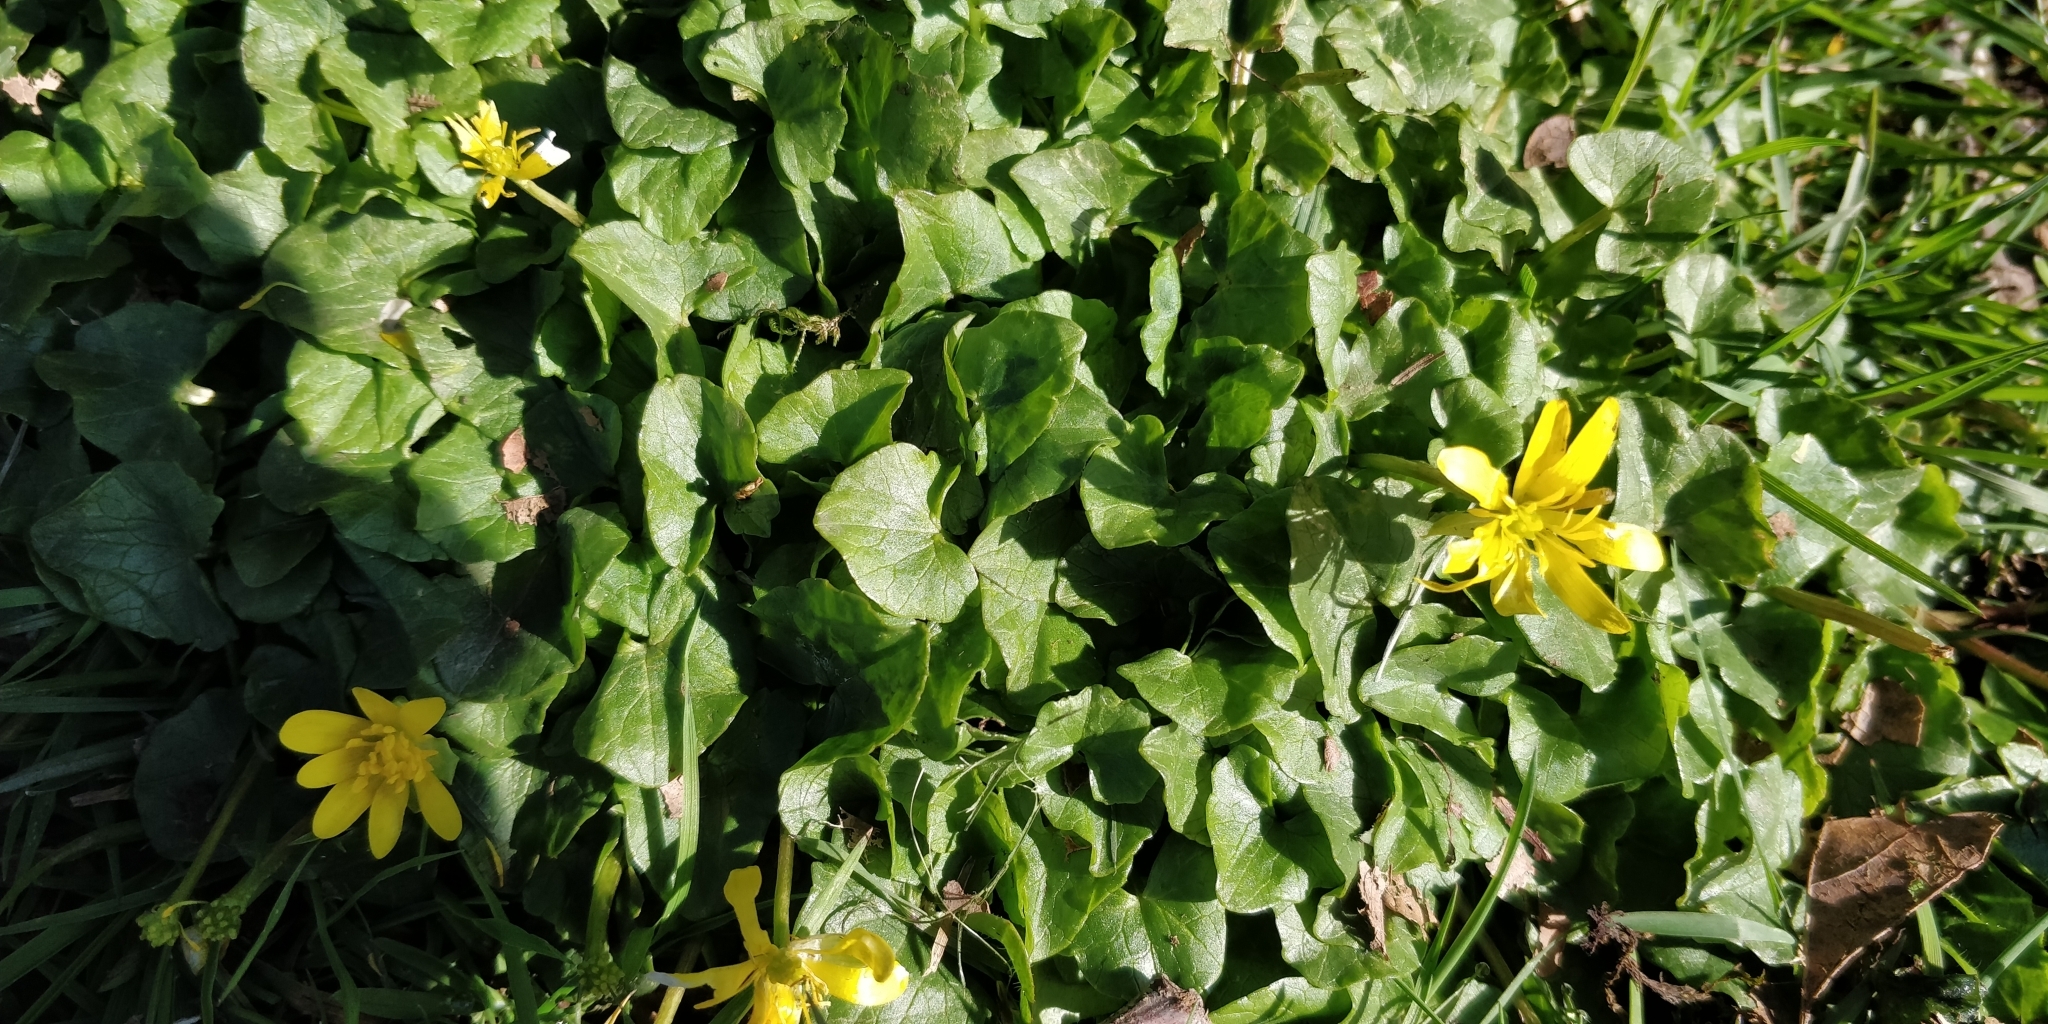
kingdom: Plantae
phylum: Tracheophyta
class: Magnoliopsida
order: Ranunculales
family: Ranunculaceae
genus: Ficaria
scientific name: Ficaria verna
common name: Lesser celandine
